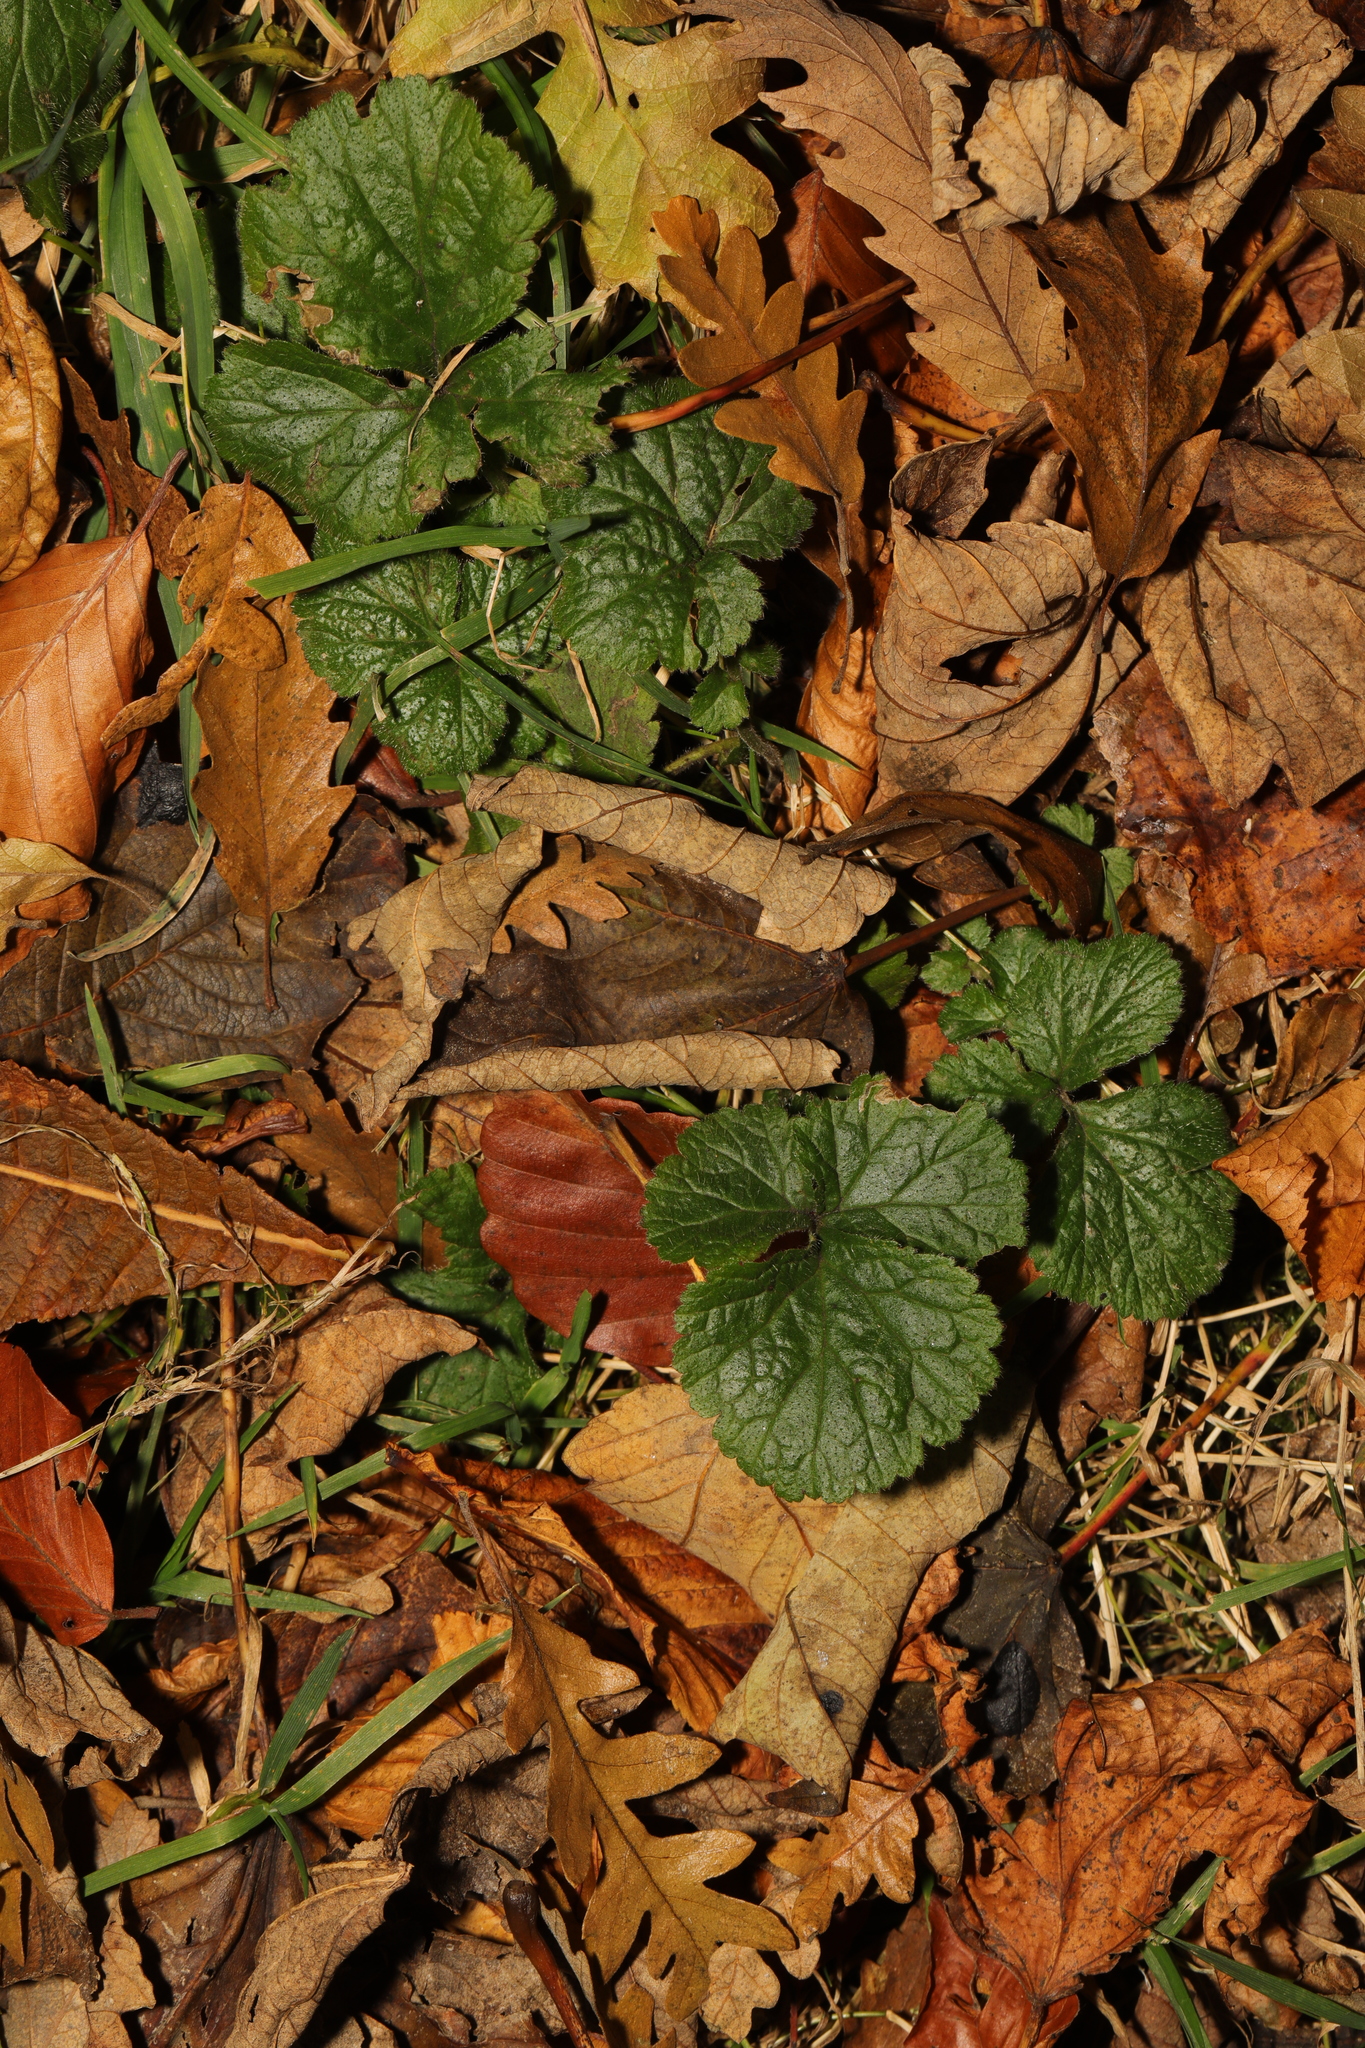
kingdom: Plantae
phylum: Tracheophyta
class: Magnoliopsida
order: Rosales
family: Rosaceae
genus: Geum
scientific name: Geum urbanum
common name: Wood avens
